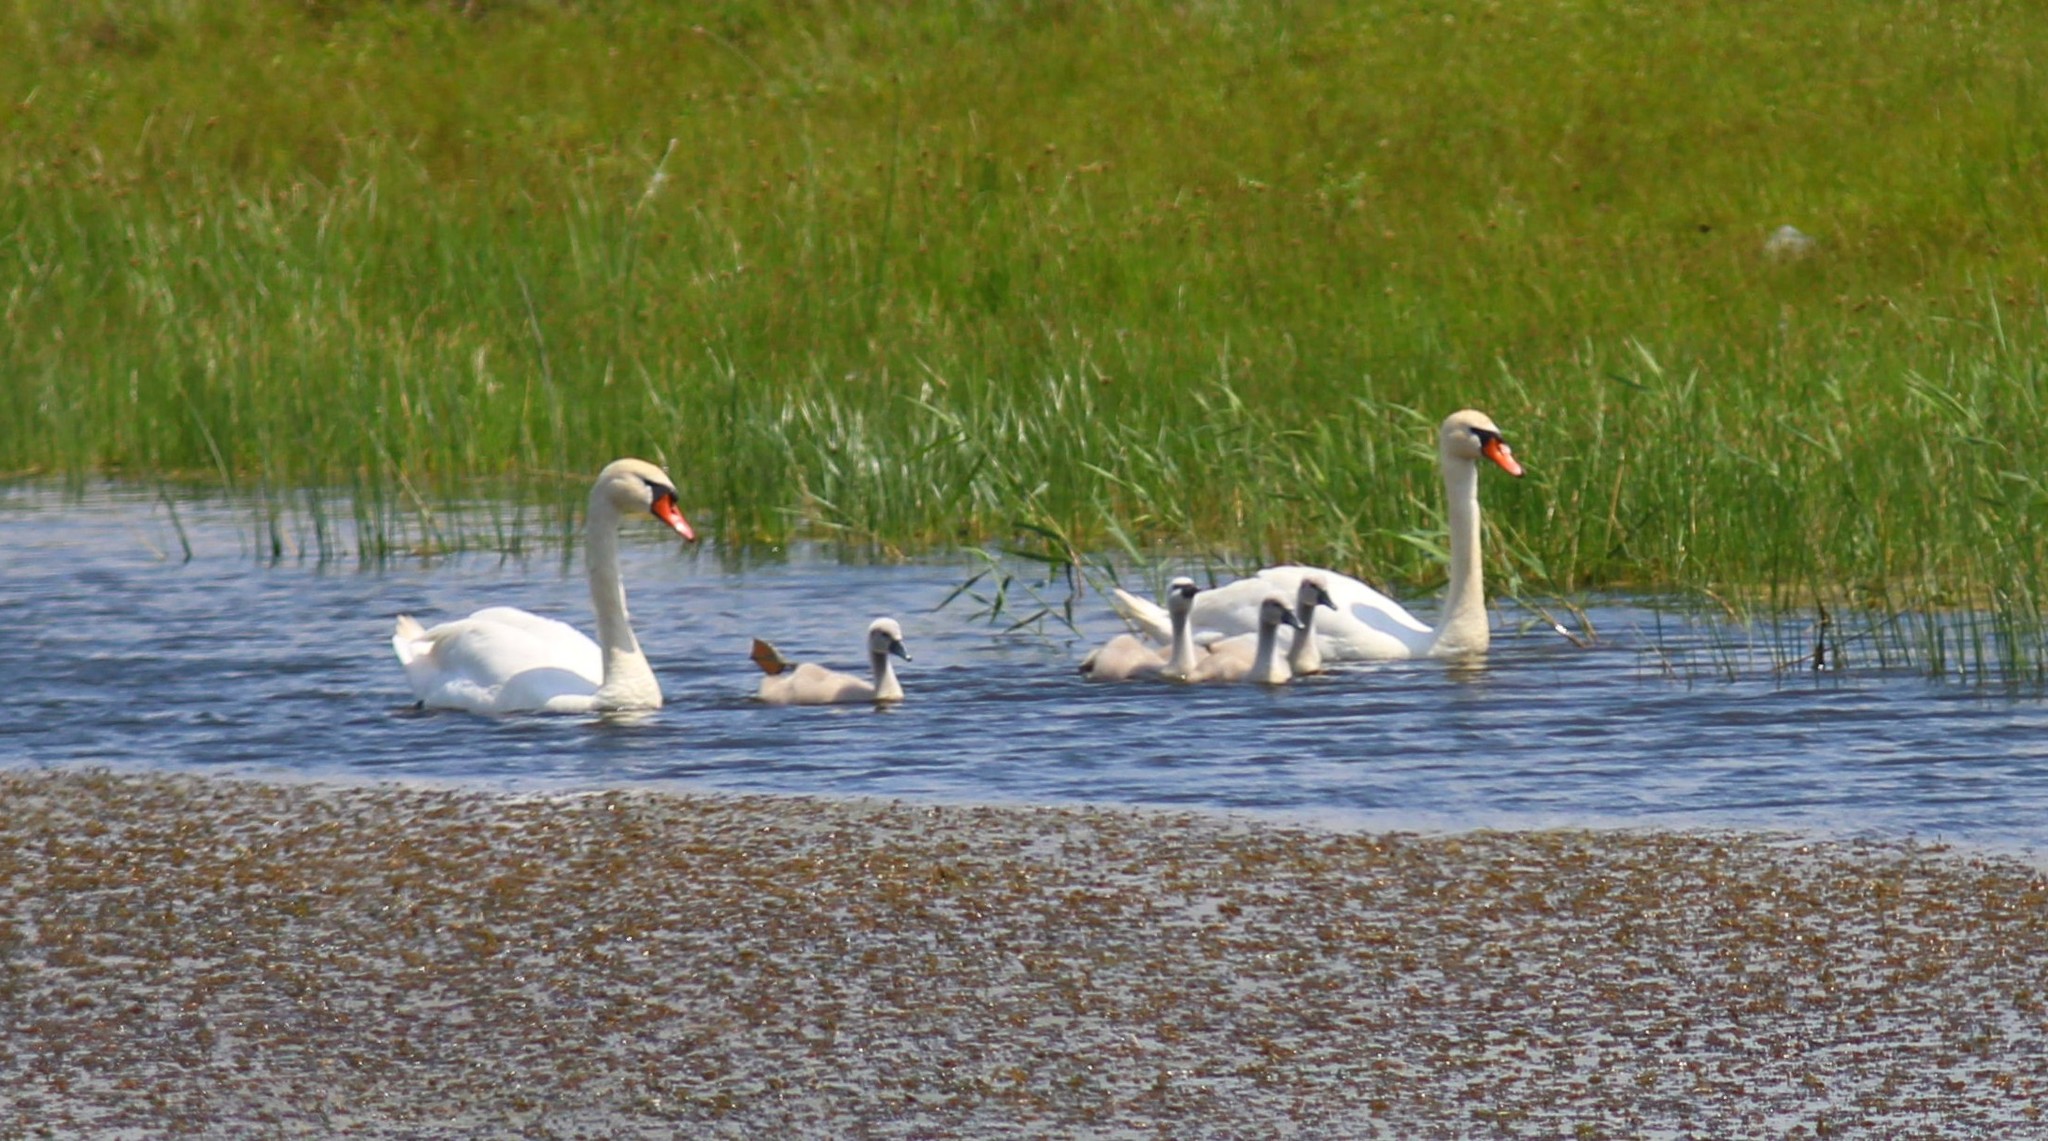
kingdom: Animalia
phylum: Chordata
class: Aves
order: Anseriformes
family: Anatidae
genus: Cygnus
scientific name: Cygnus olor
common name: Mute swan
